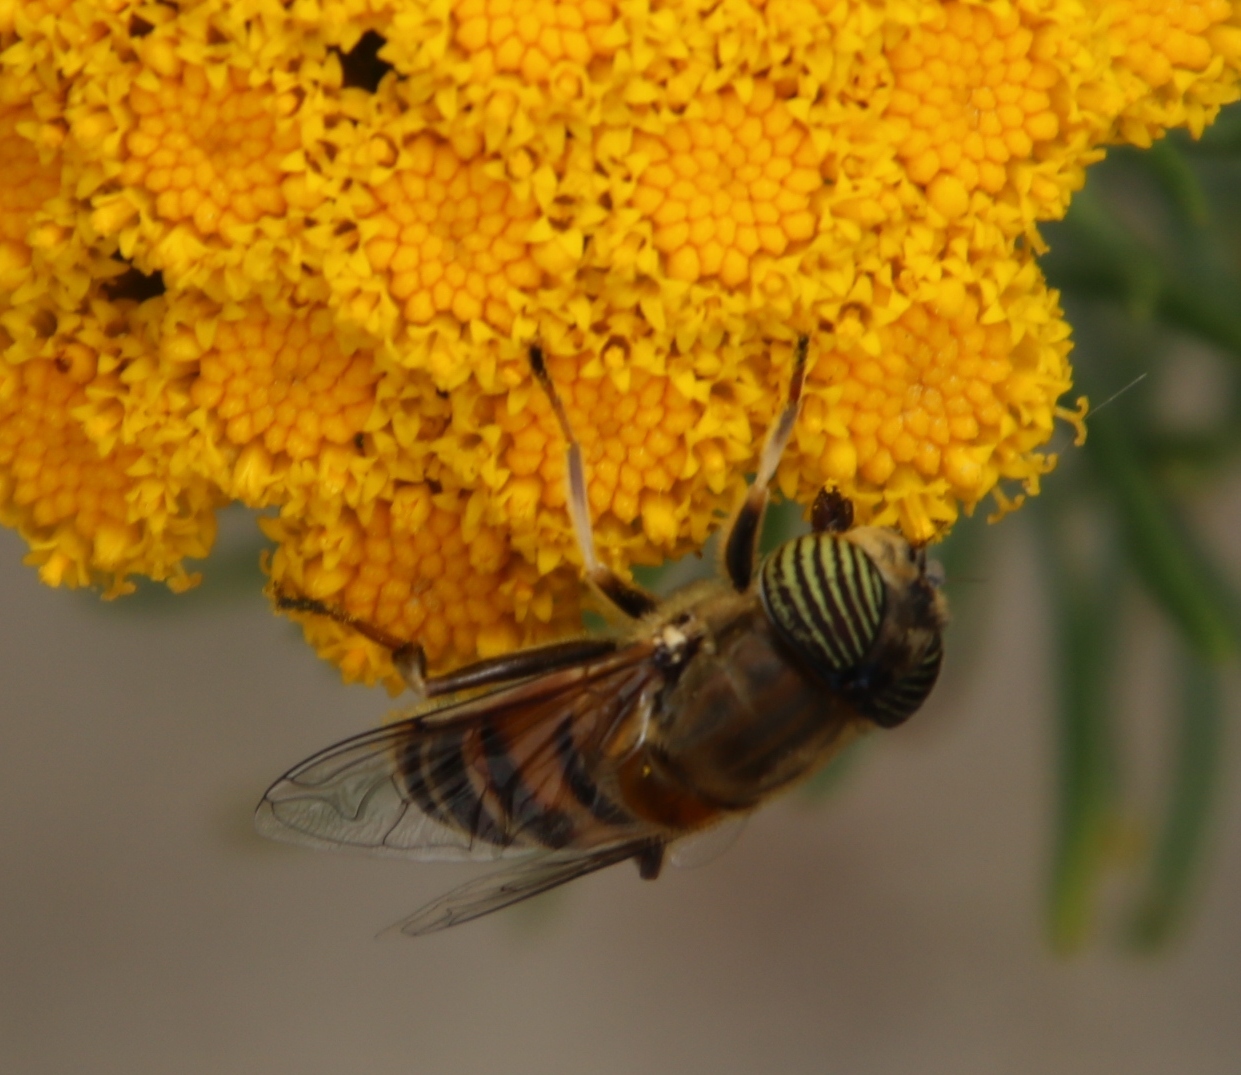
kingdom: Animalia
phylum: Arthropoda
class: Insecta
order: Diptera
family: Syrphidae
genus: Eristalinus
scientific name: Eristalinus taeniops
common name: Syrphid fly
